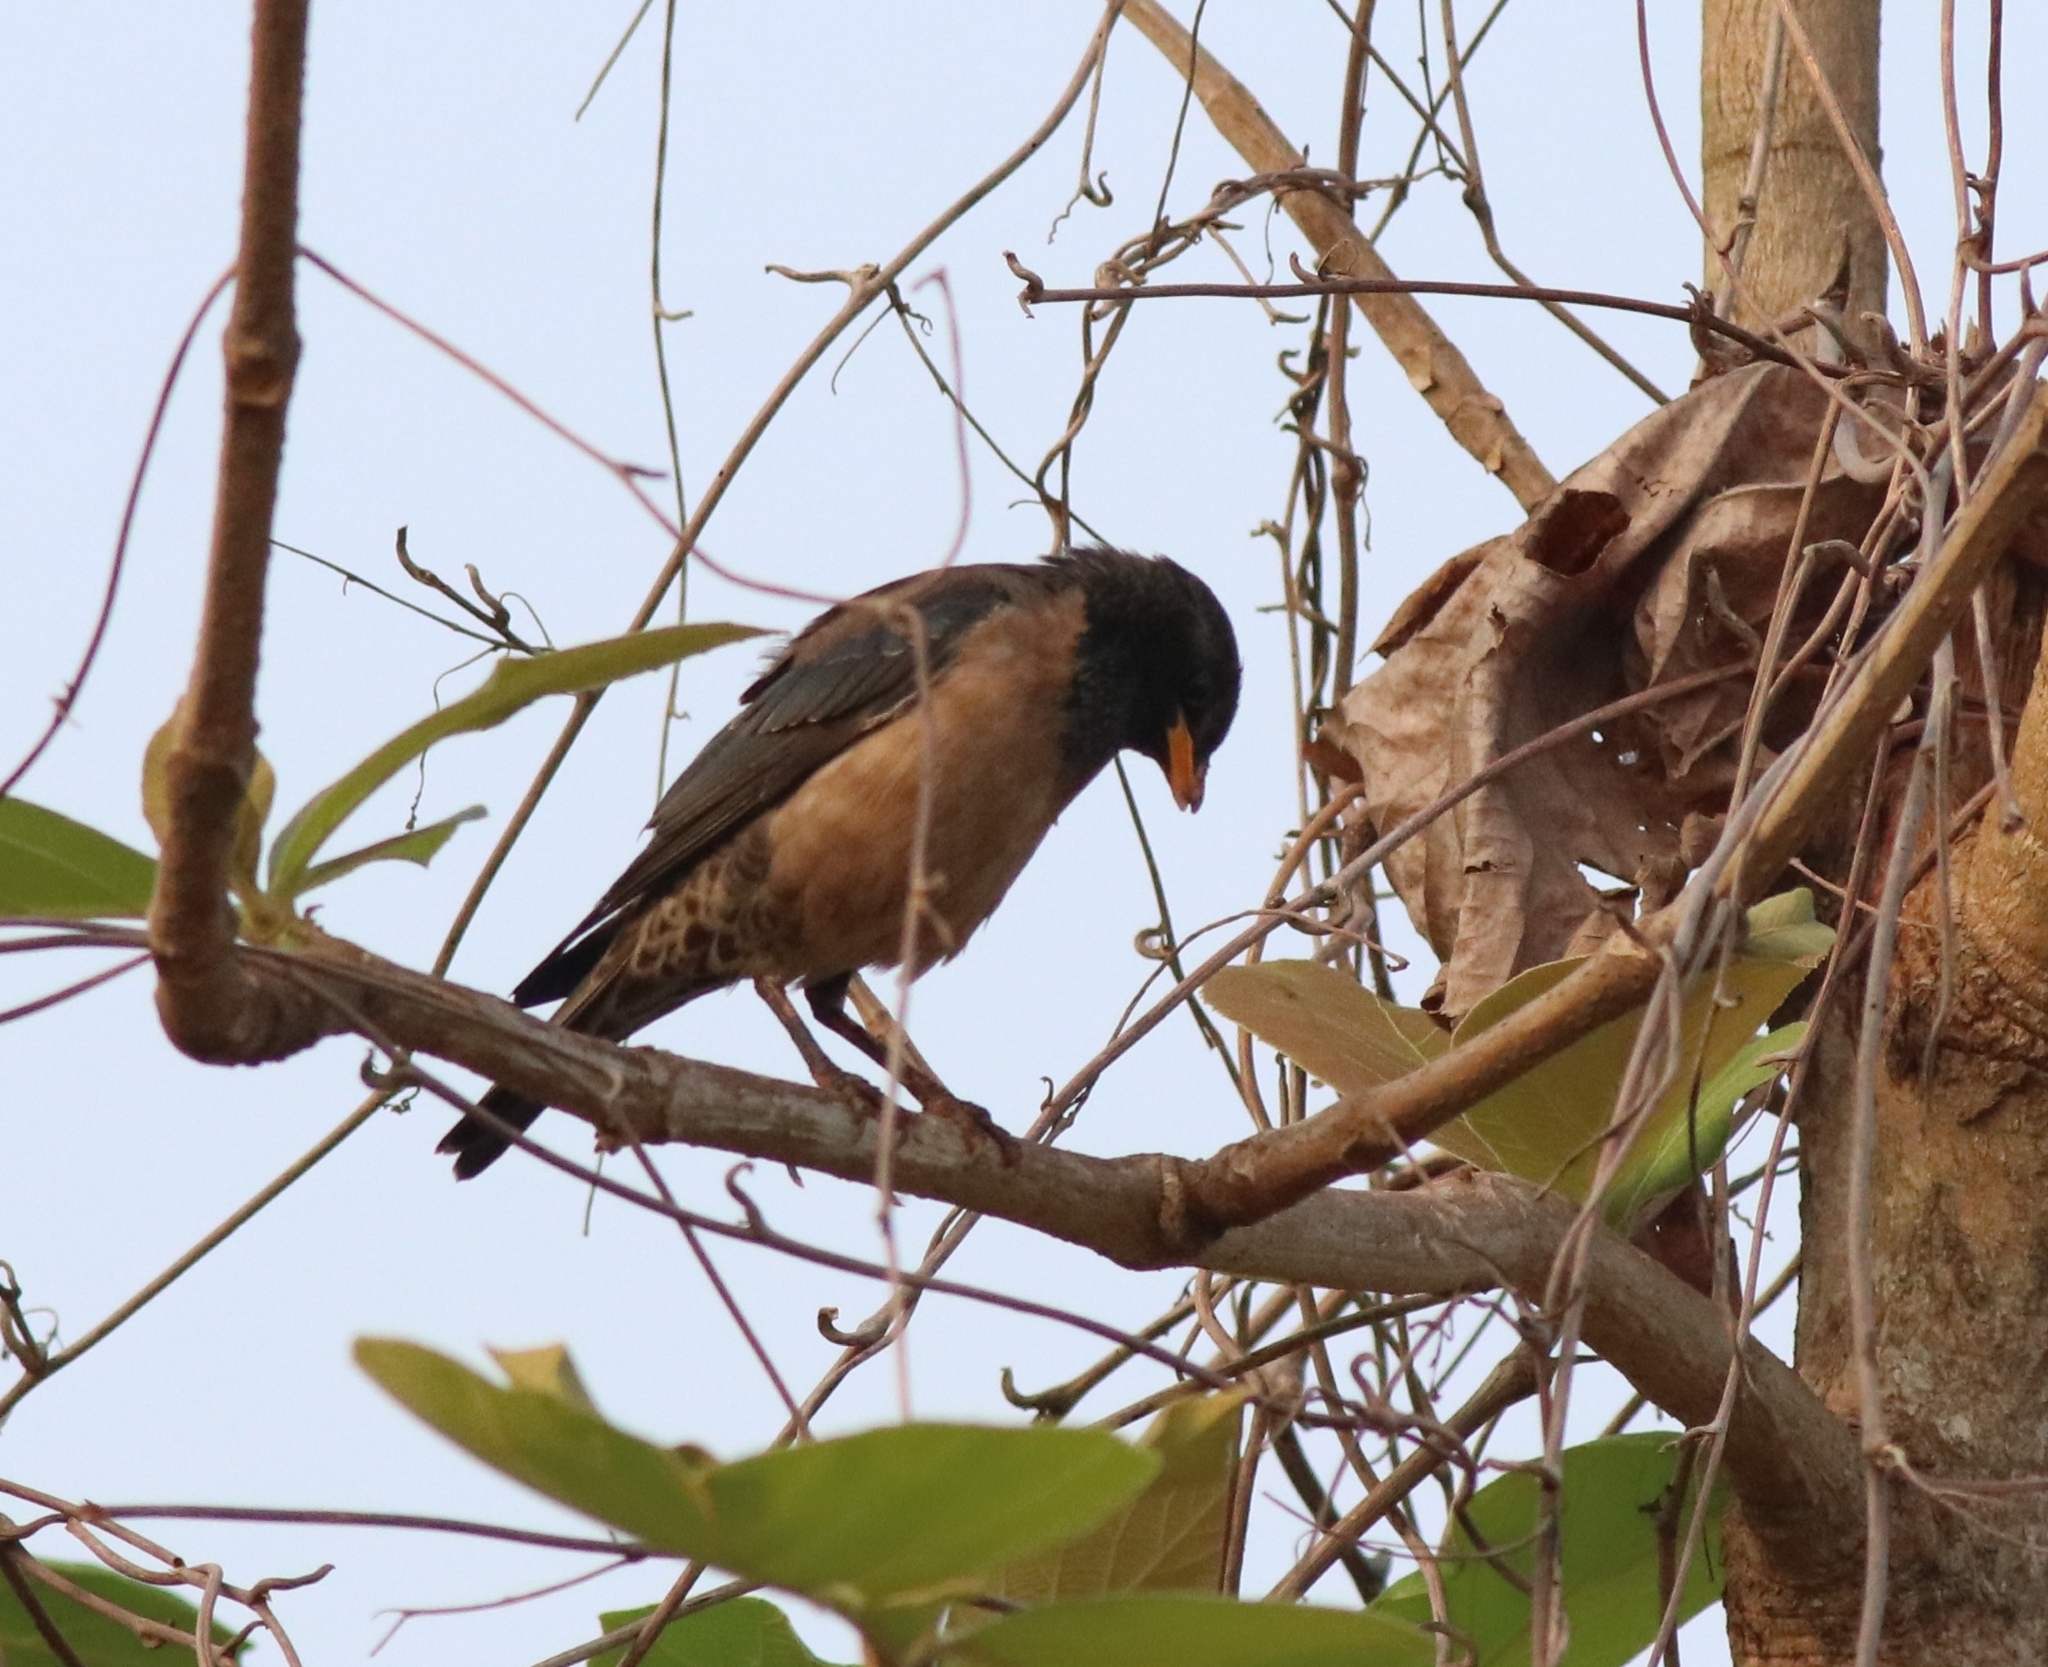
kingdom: Animalia
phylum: Chordata
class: Aves
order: Passeriformes
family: Sturnidae
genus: Pastor
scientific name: Pastor roseus
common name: Rosy starling
